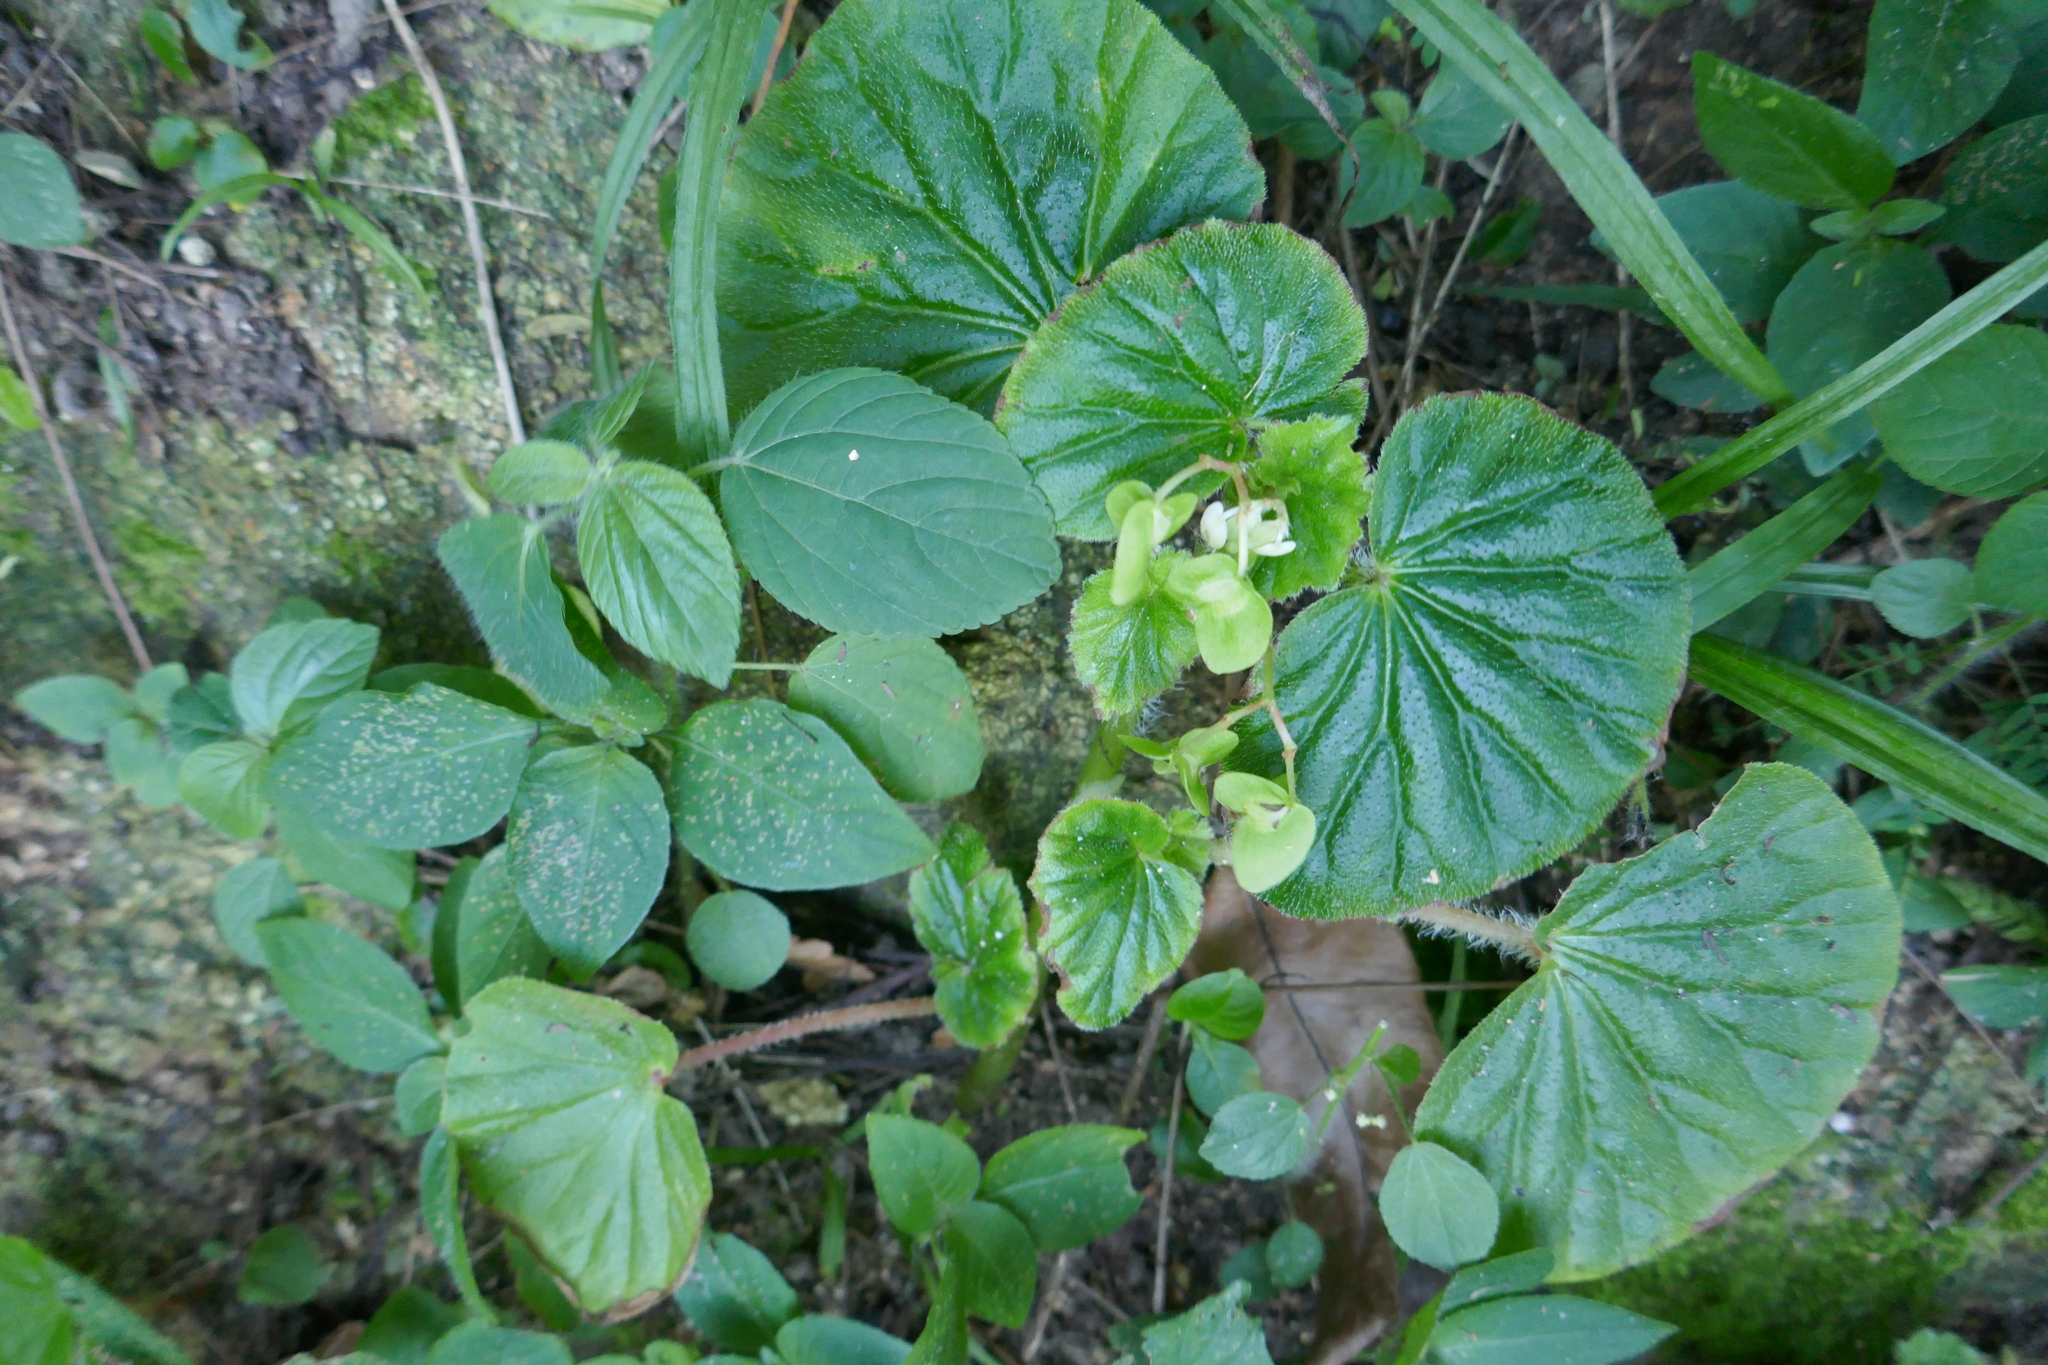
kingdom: Plantae
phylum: Tracheophyta
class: Magnoliopsida
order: Cucurbitales
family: Begoniaceae
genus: Begonia
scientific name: Begonia hirtella
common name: Brazilian begonia
